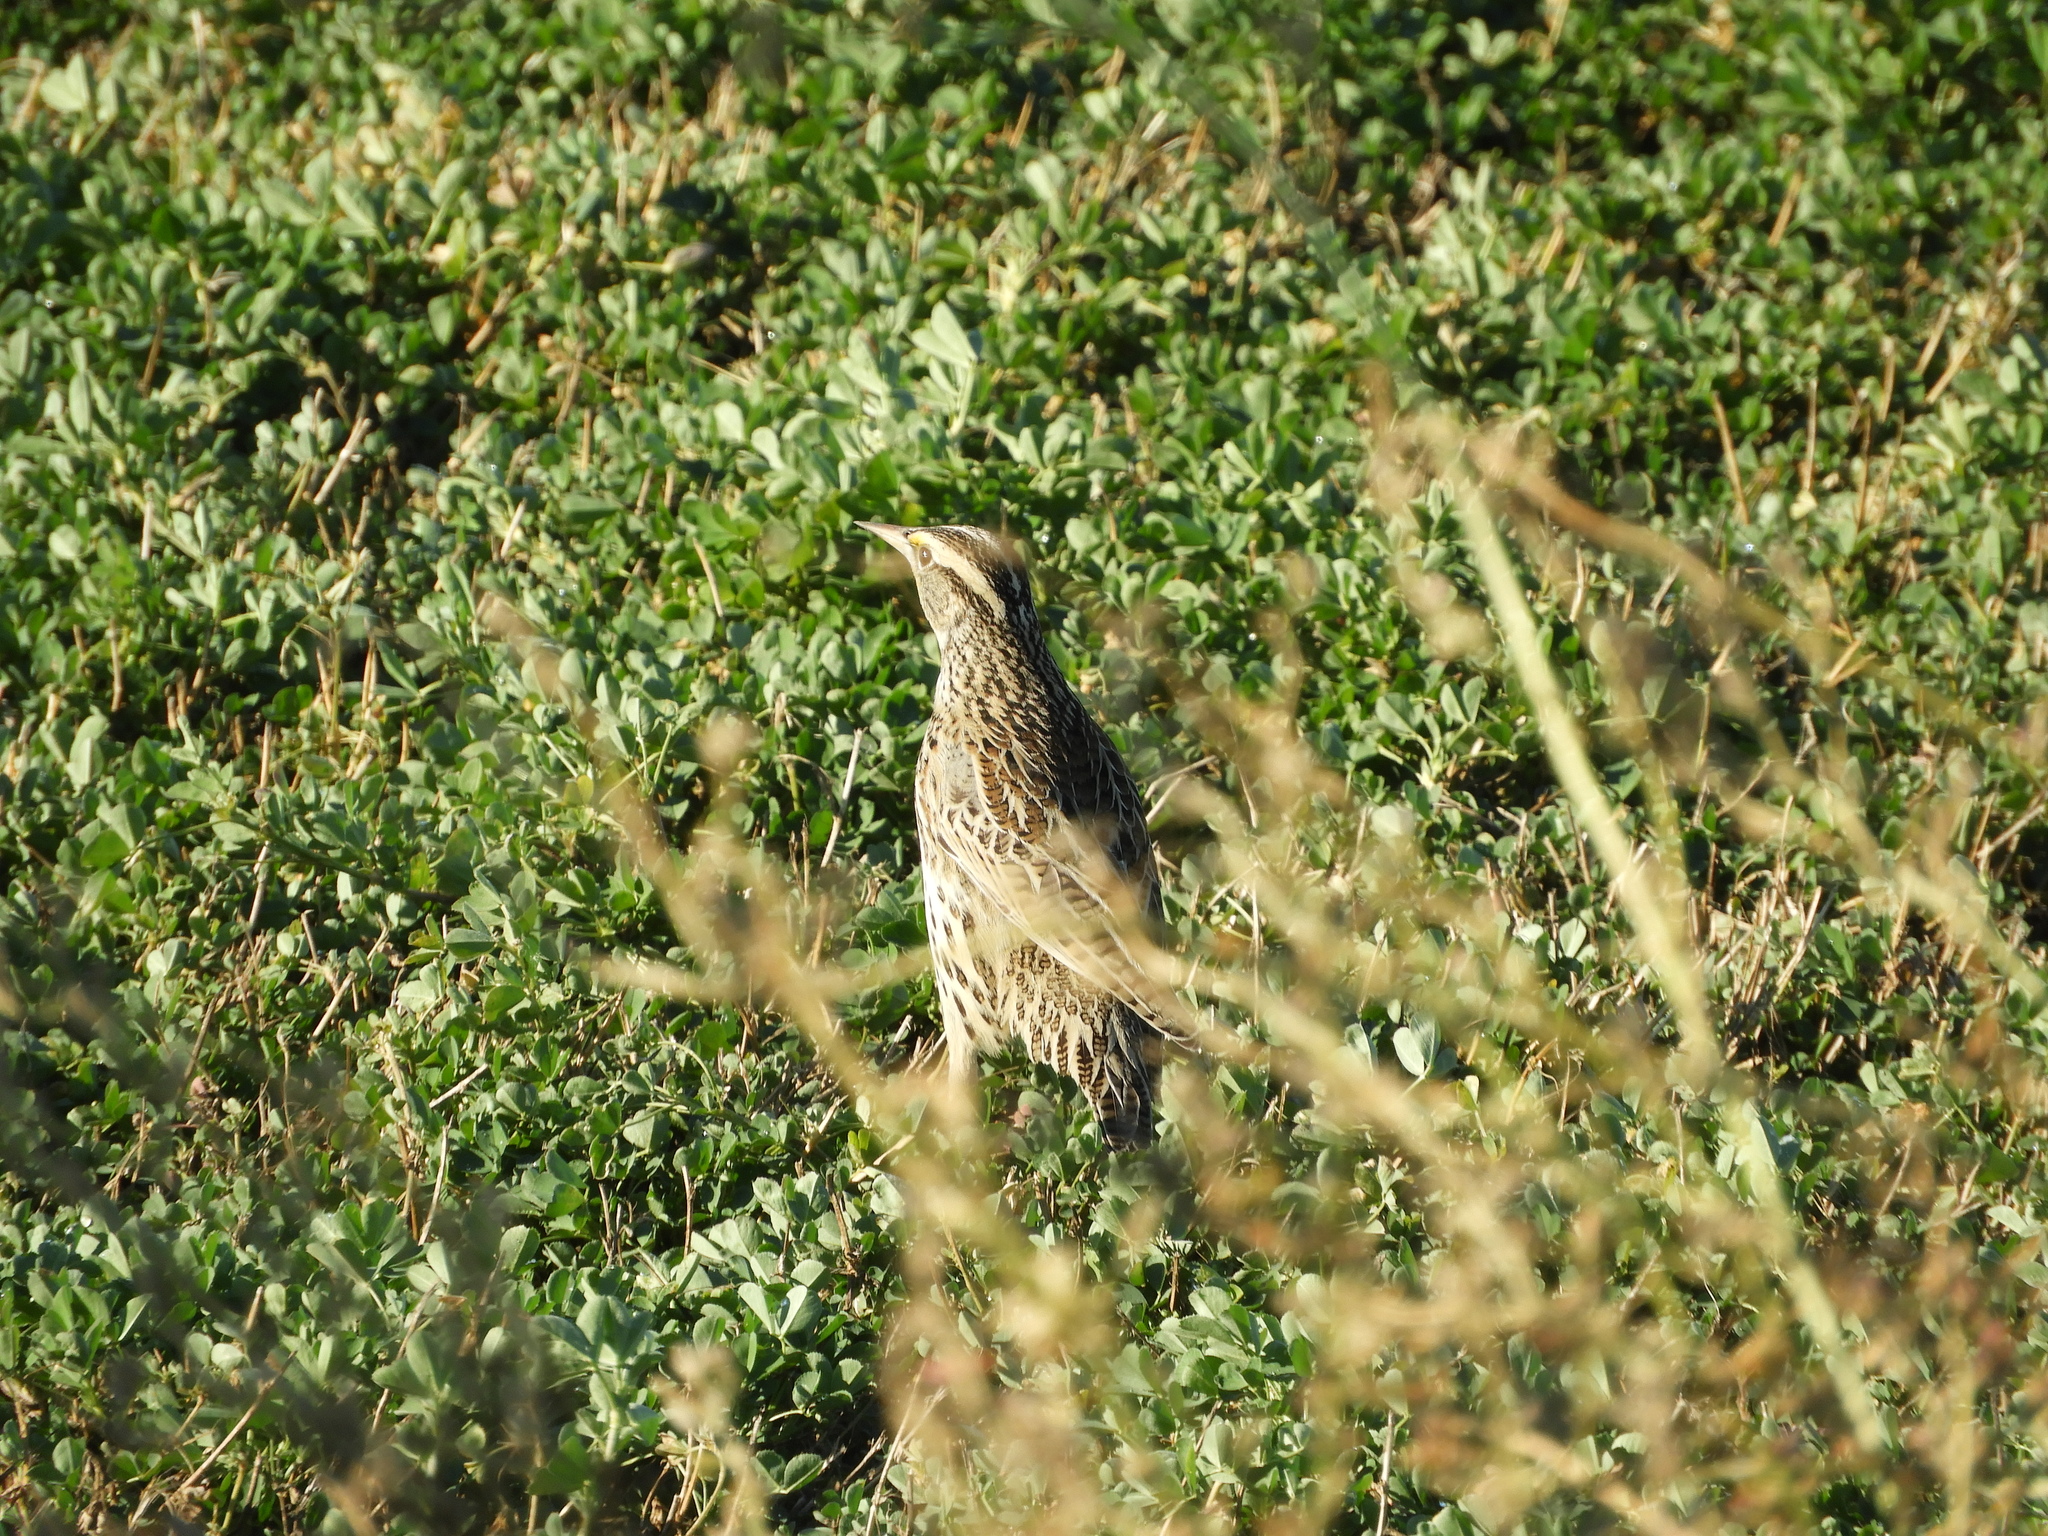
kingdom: Animalia
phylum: Chordata
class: Aves
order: Passeriformes
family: Icteridae
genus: Sturnella
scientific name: Sturnella neglecta
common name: Western meadowlark
